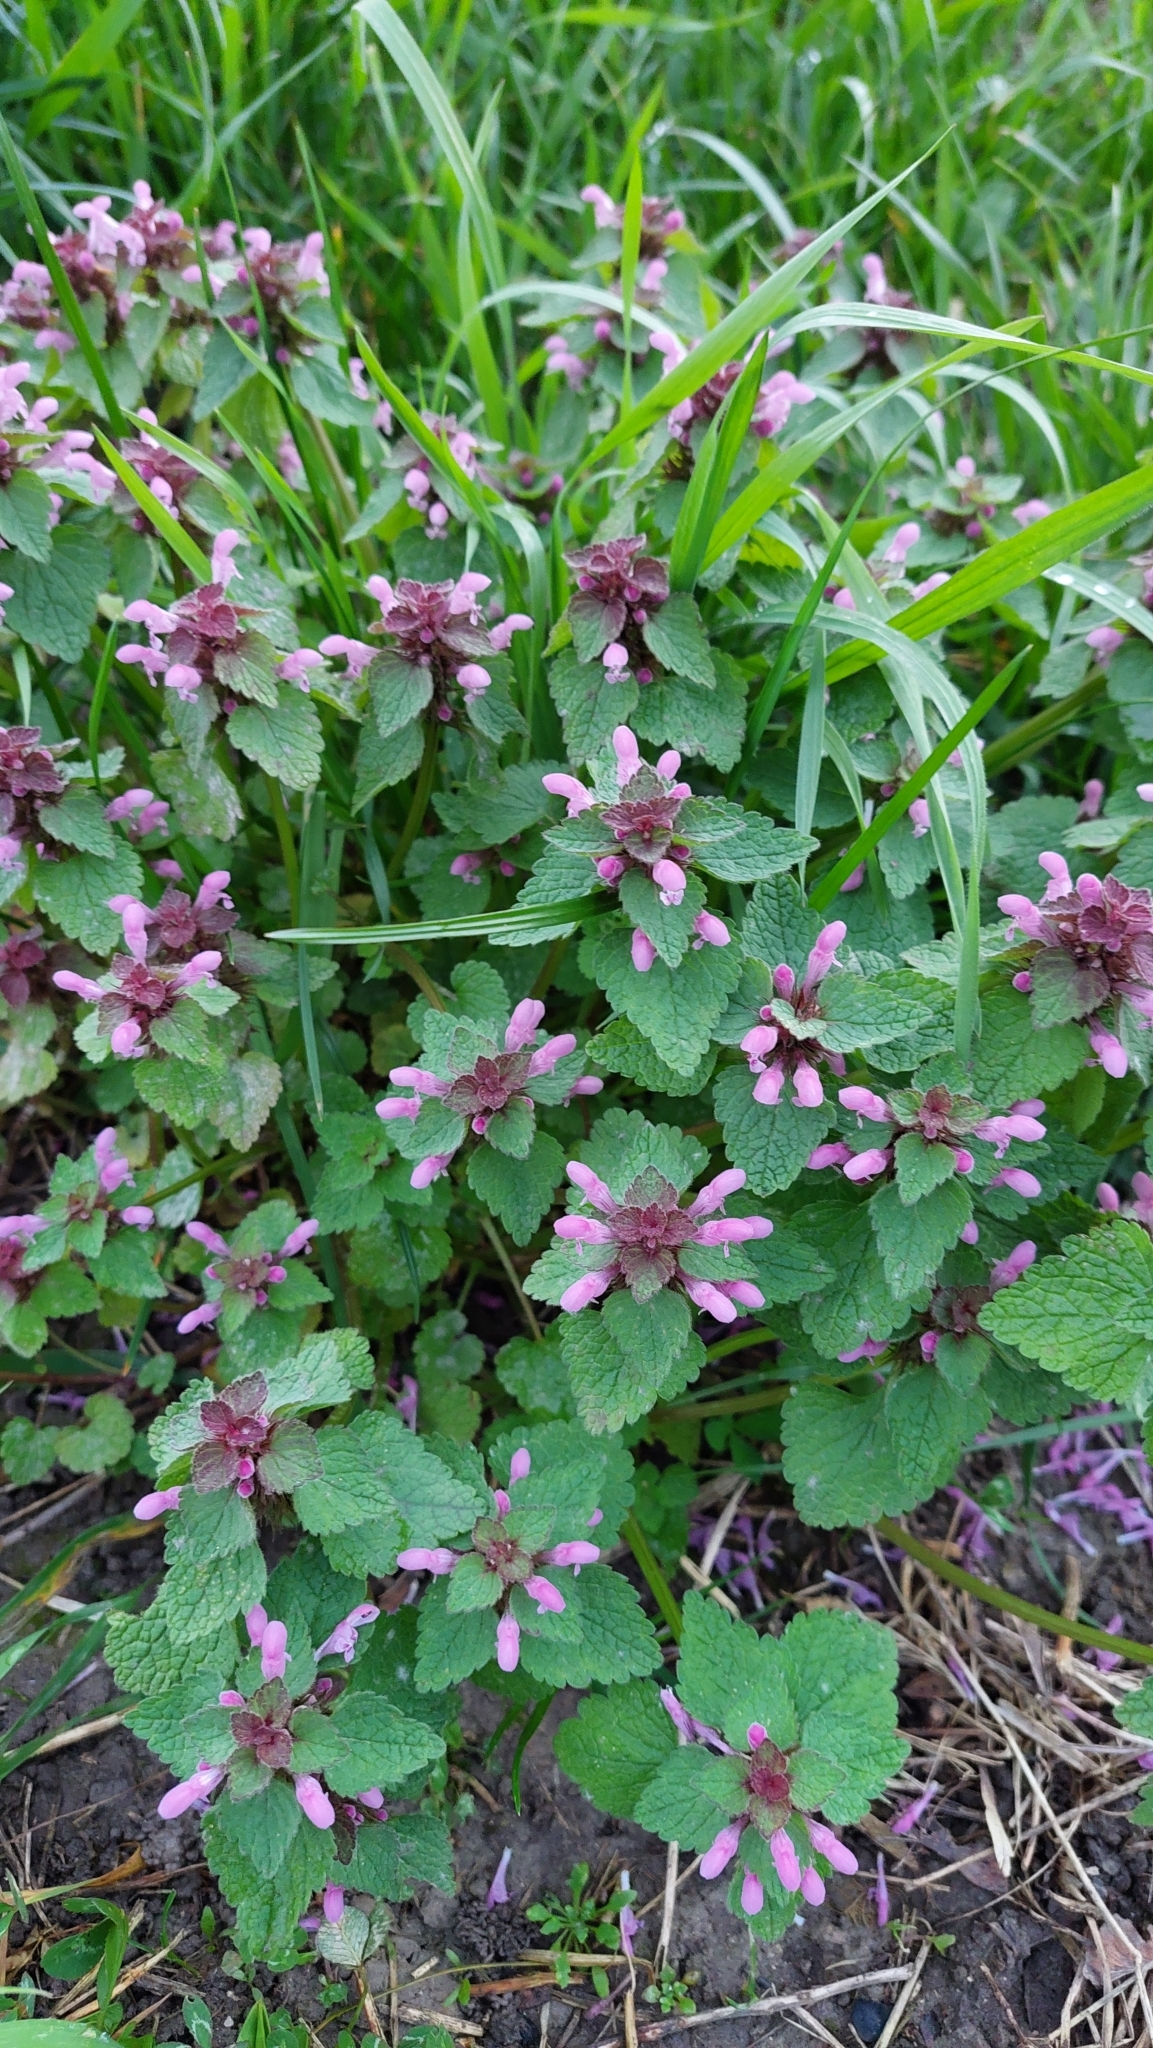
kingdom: Plantae
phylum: Tracheophyta
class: Magnoliopsida
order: Lamiales
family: Lamiaceae
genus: Lamium
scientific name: Lamium purpureum
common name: Red dead-nettle
